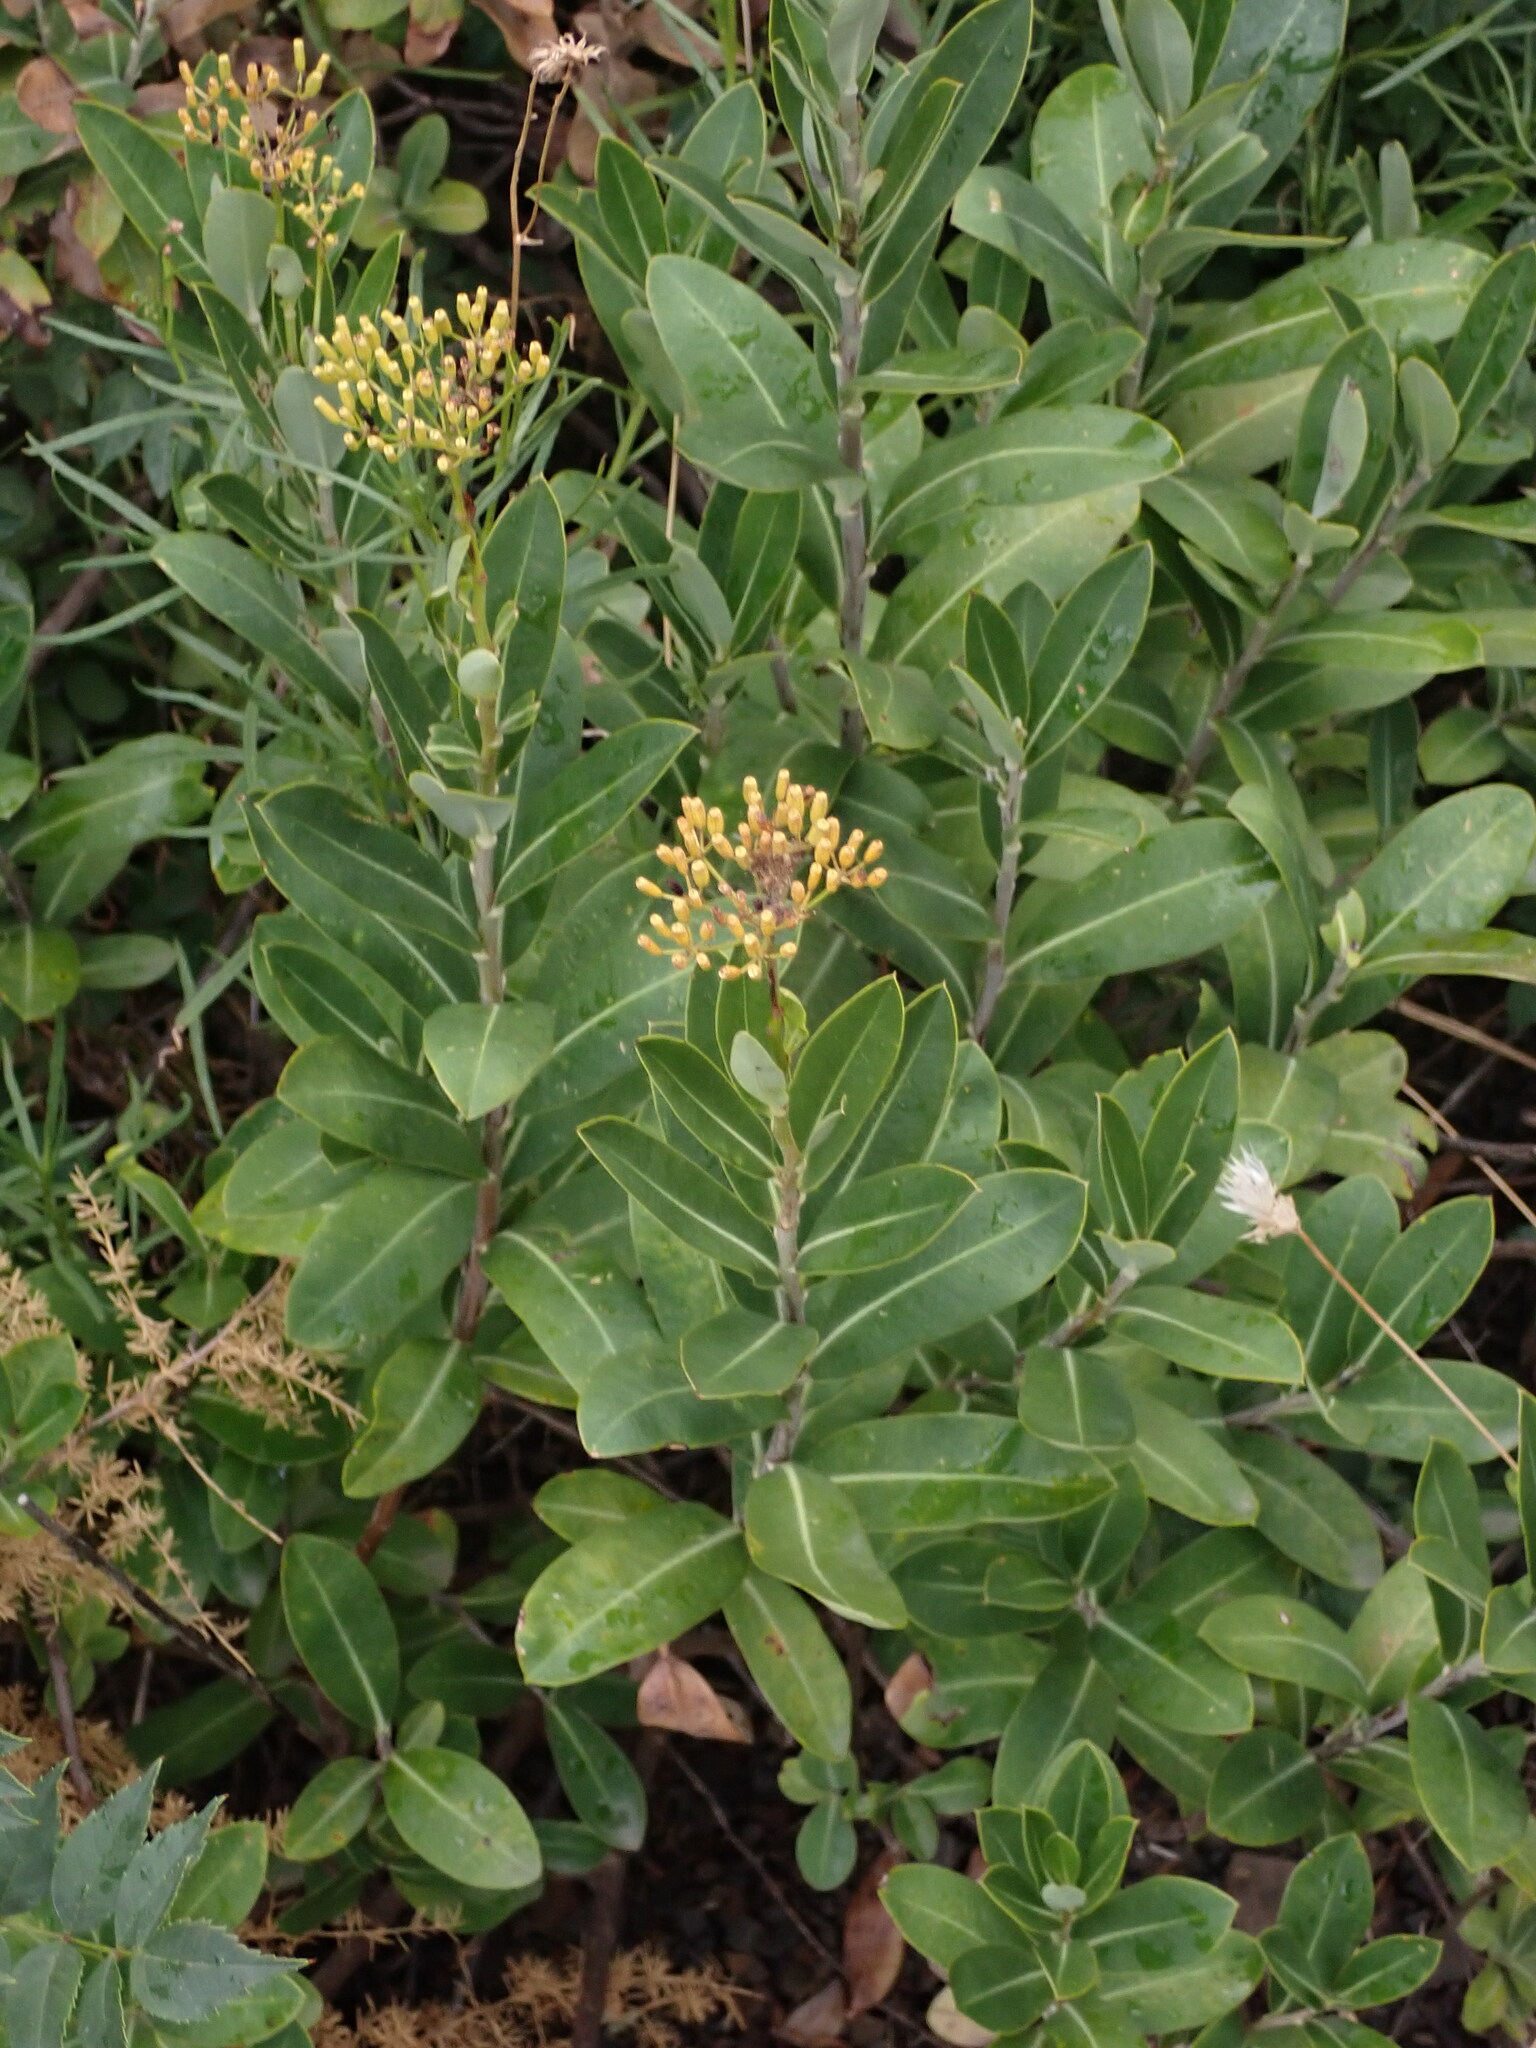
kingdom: Plantae
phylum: Tracheophyta
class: Magnoliopsida
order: Apiales
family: Apiaceae
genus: Bupleurum
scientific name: Bupleurum fruticosum
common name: Shrubby hare's-ear
